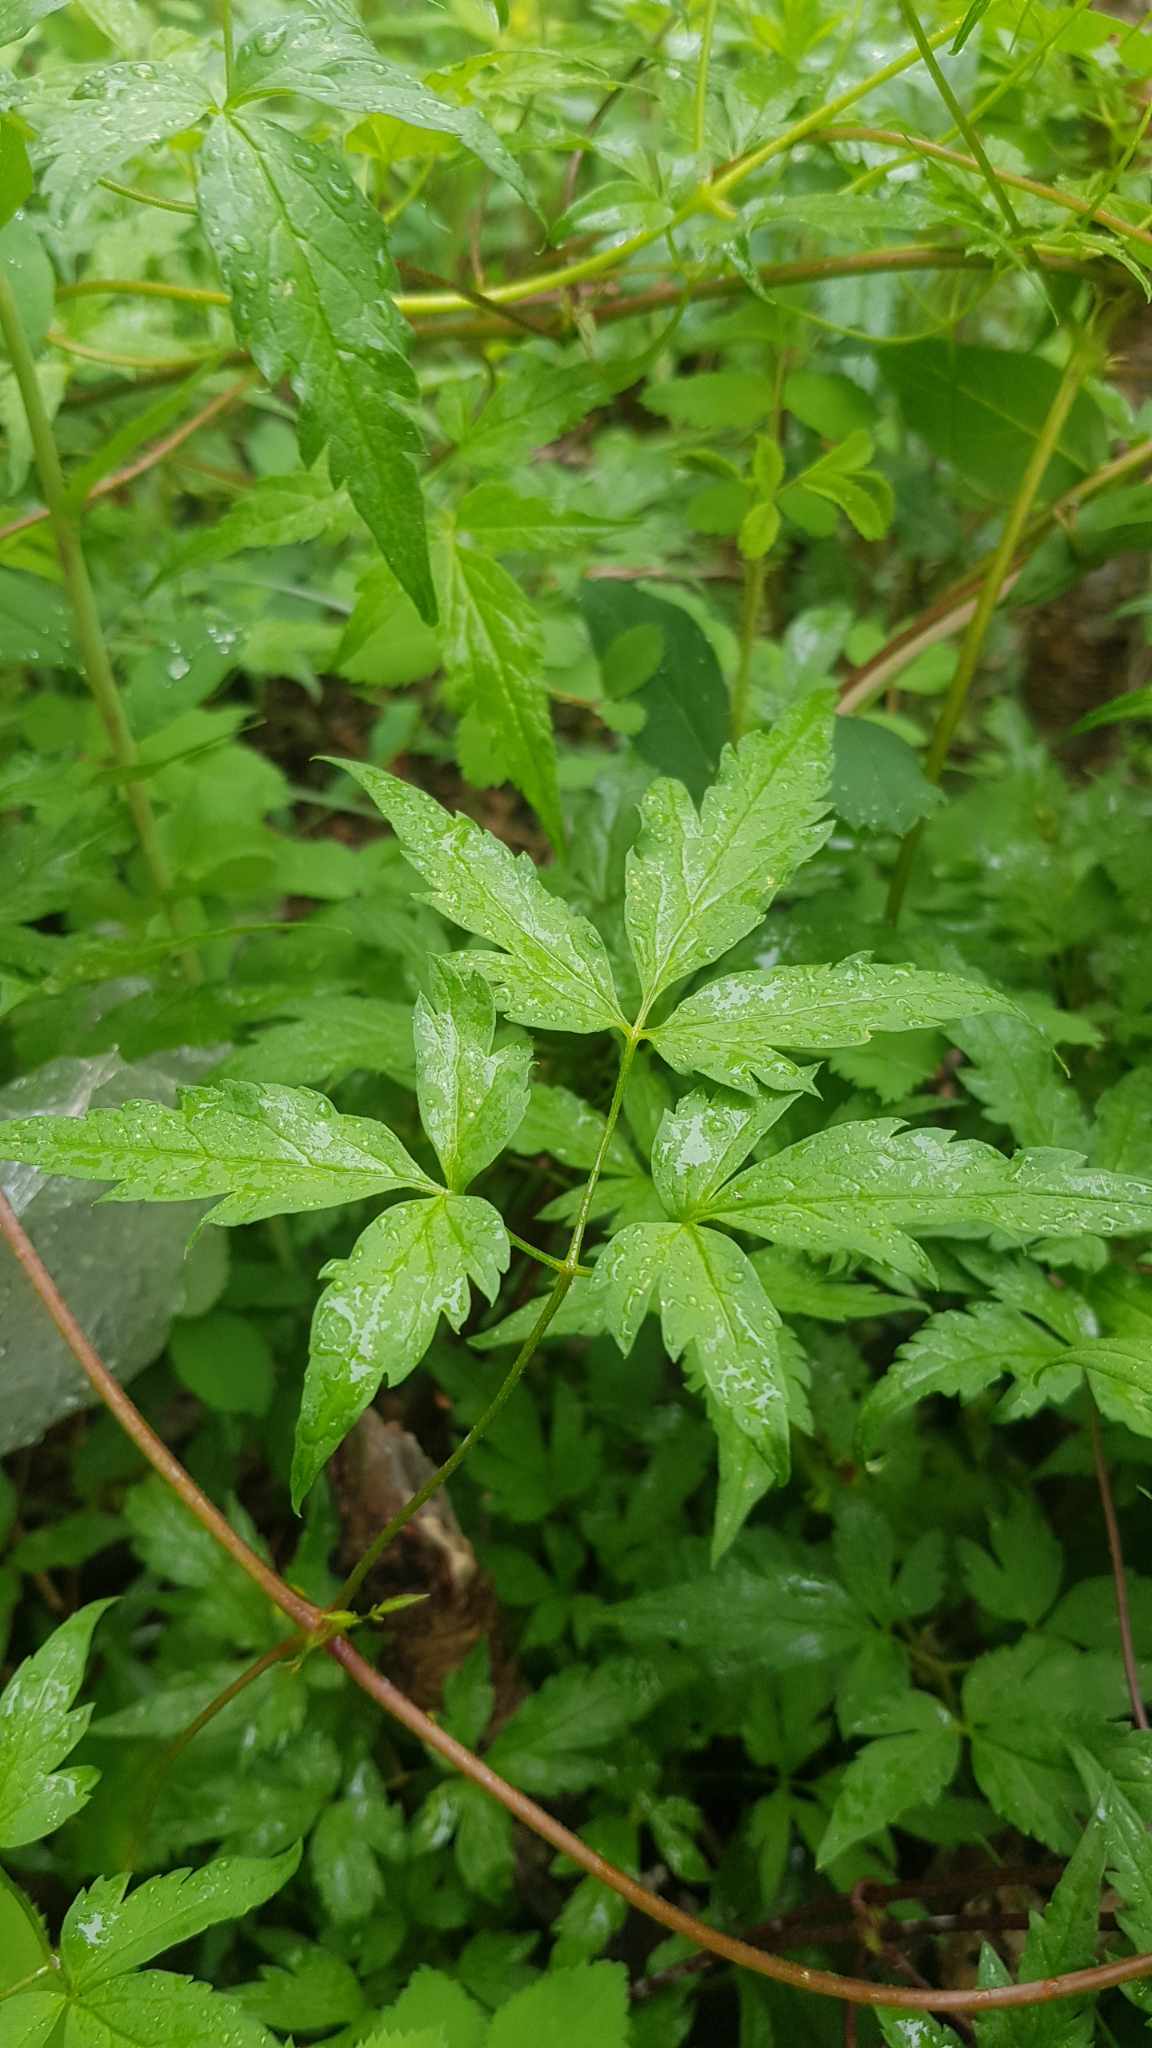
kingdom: Plantae
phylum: Tracheophyta
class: Magnoliopsida
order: Ranunculales
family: Ranunculaceae
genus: Clematis
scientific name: Clematis sibirica
